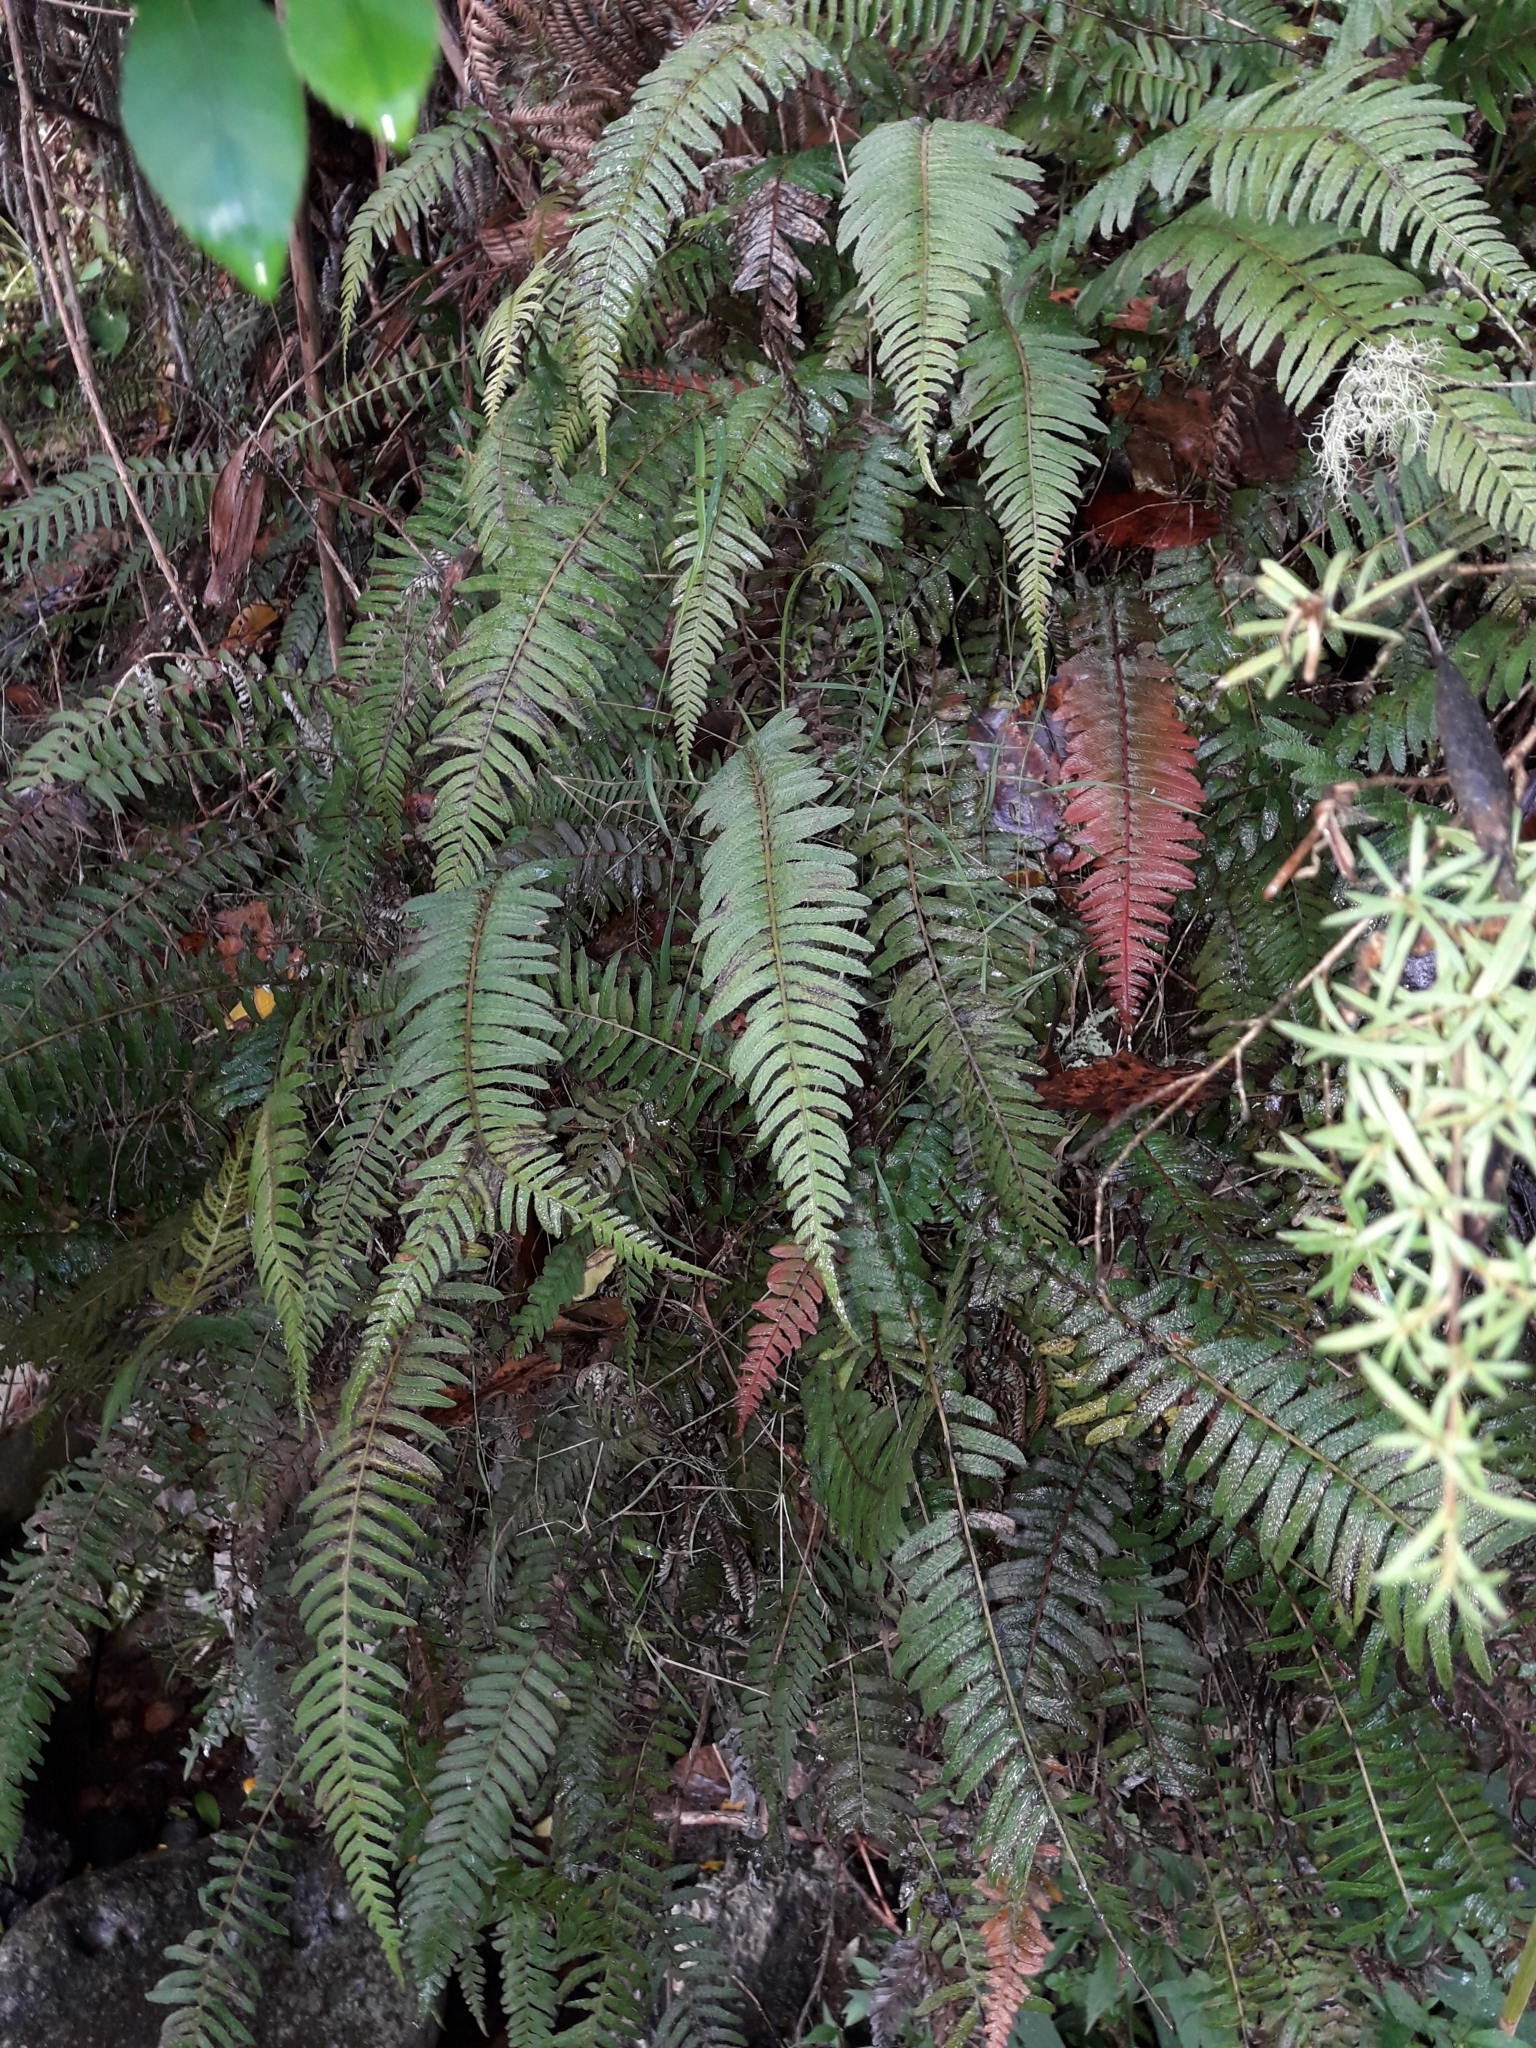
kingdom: Plantae
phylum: Tracheophyta
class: Polypodiopsida
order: Polypodiales
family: Blechnaceae
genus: Doodia
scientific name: Doodia australis
